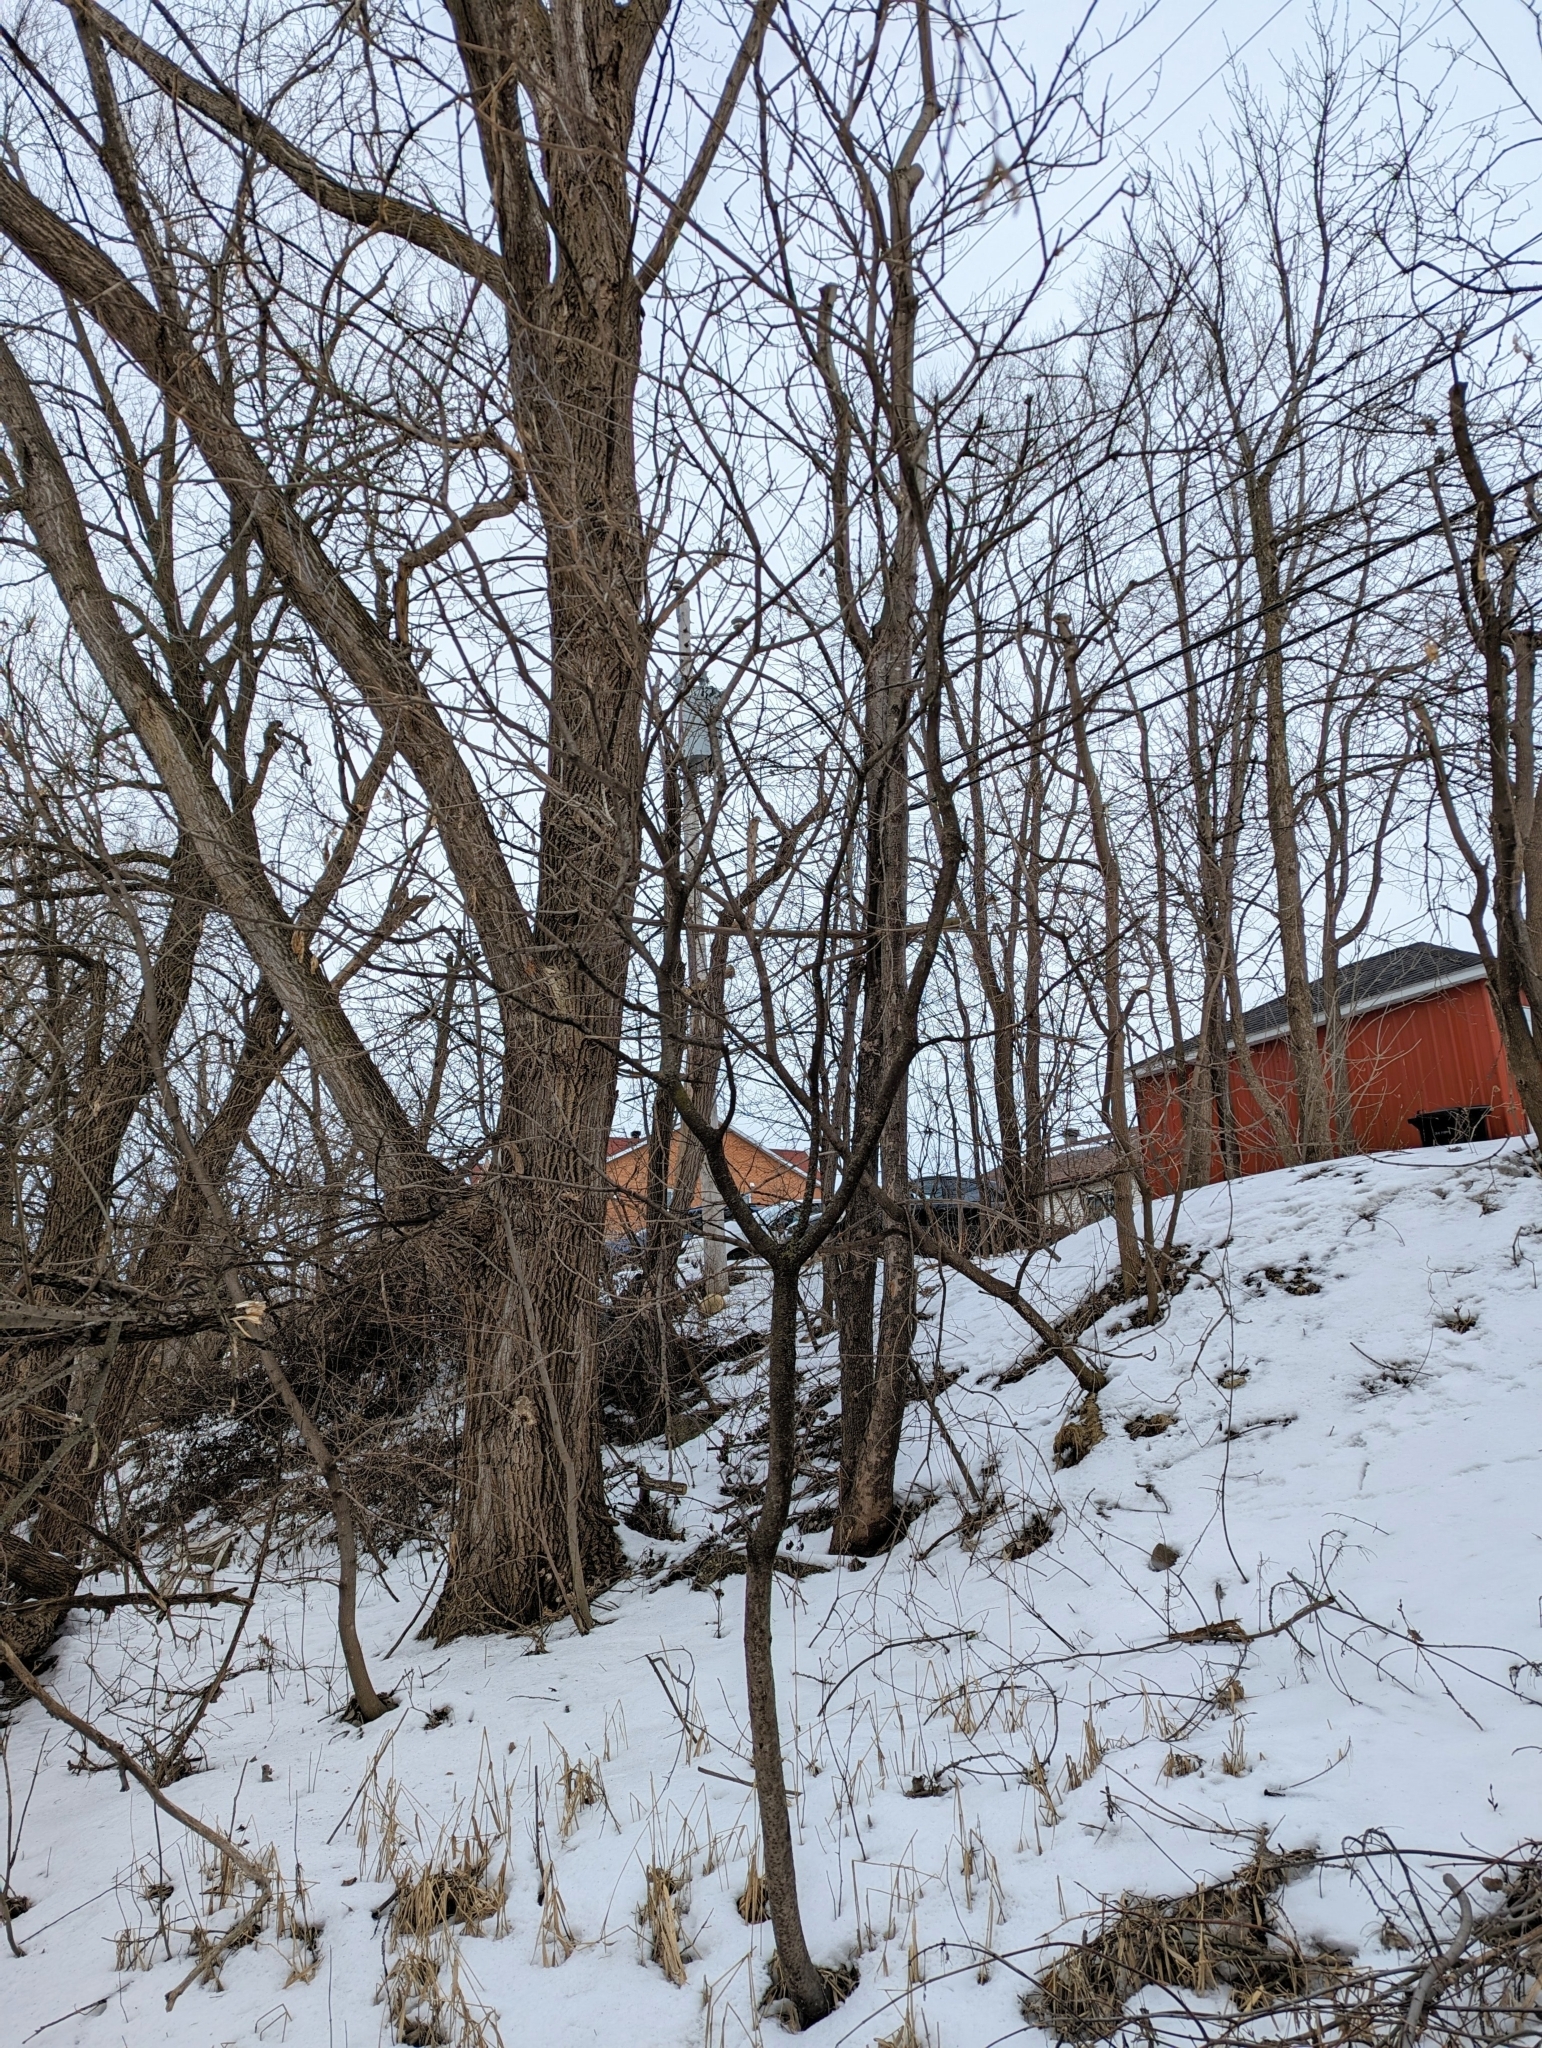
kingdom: Plantae
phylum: Tracheophyta
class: Magnoliopsida
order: Sapindales
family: Anacardiaceae
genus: Rhus
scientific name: Rhus typhina
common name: Staghorn sumac
